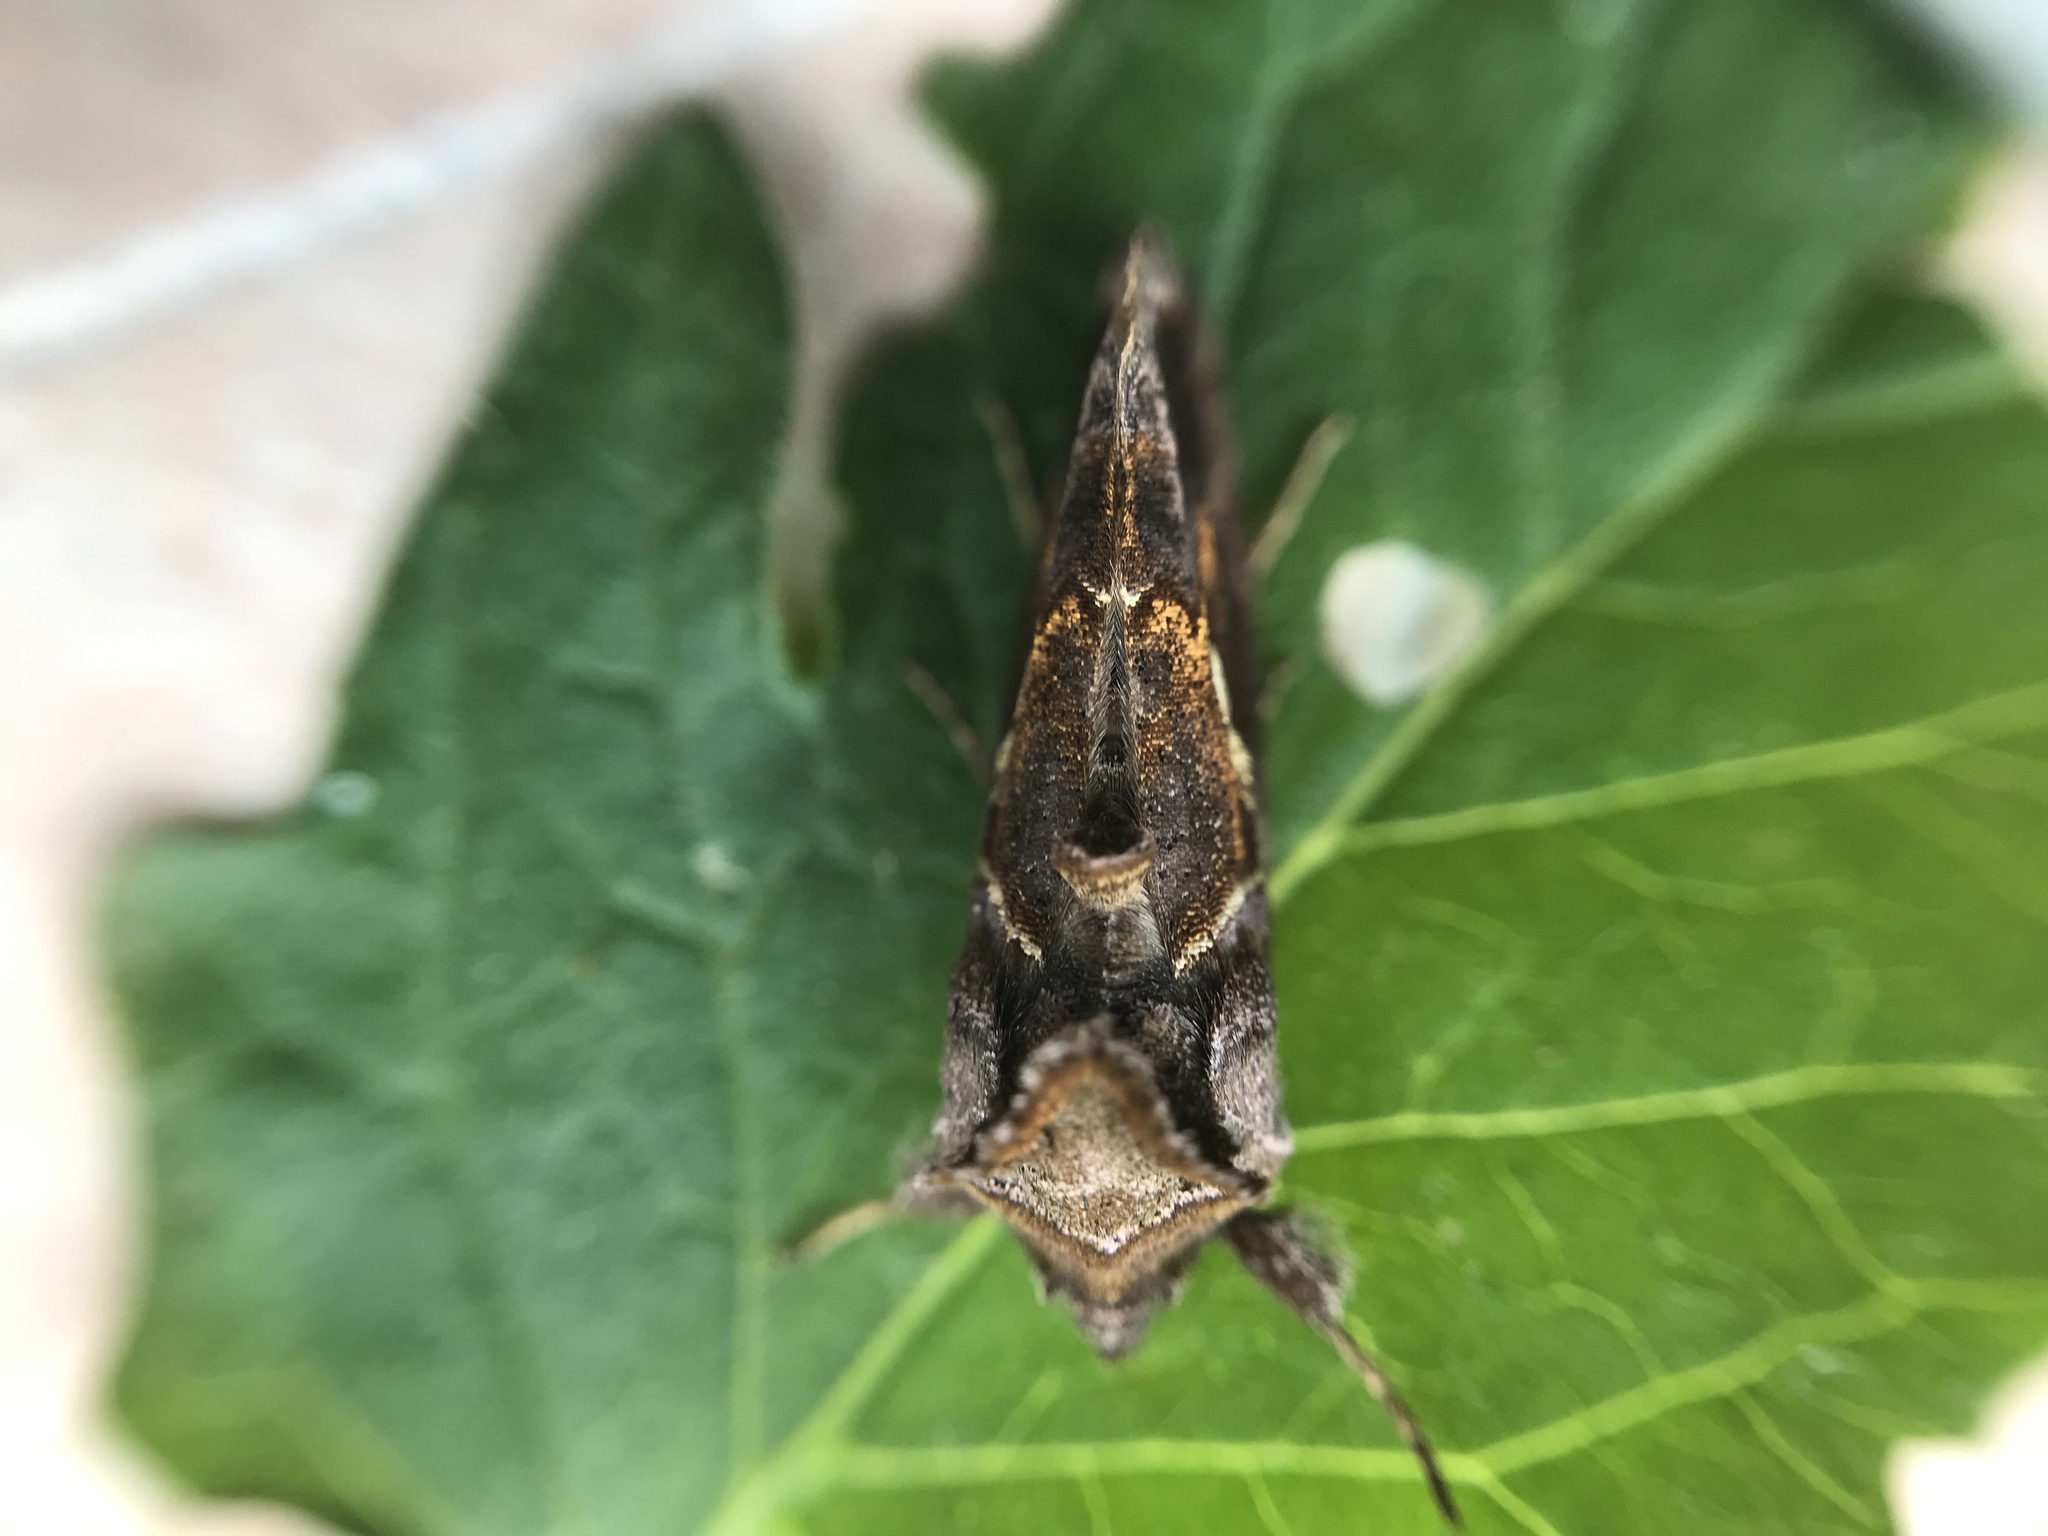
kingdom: Animalia
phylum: Arthropoda
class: Insecta
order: Lepidoptera
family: Noctuidae
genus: Chrysodeixis
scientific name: Chrysodeixis eriosoma
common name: Green garden looper
